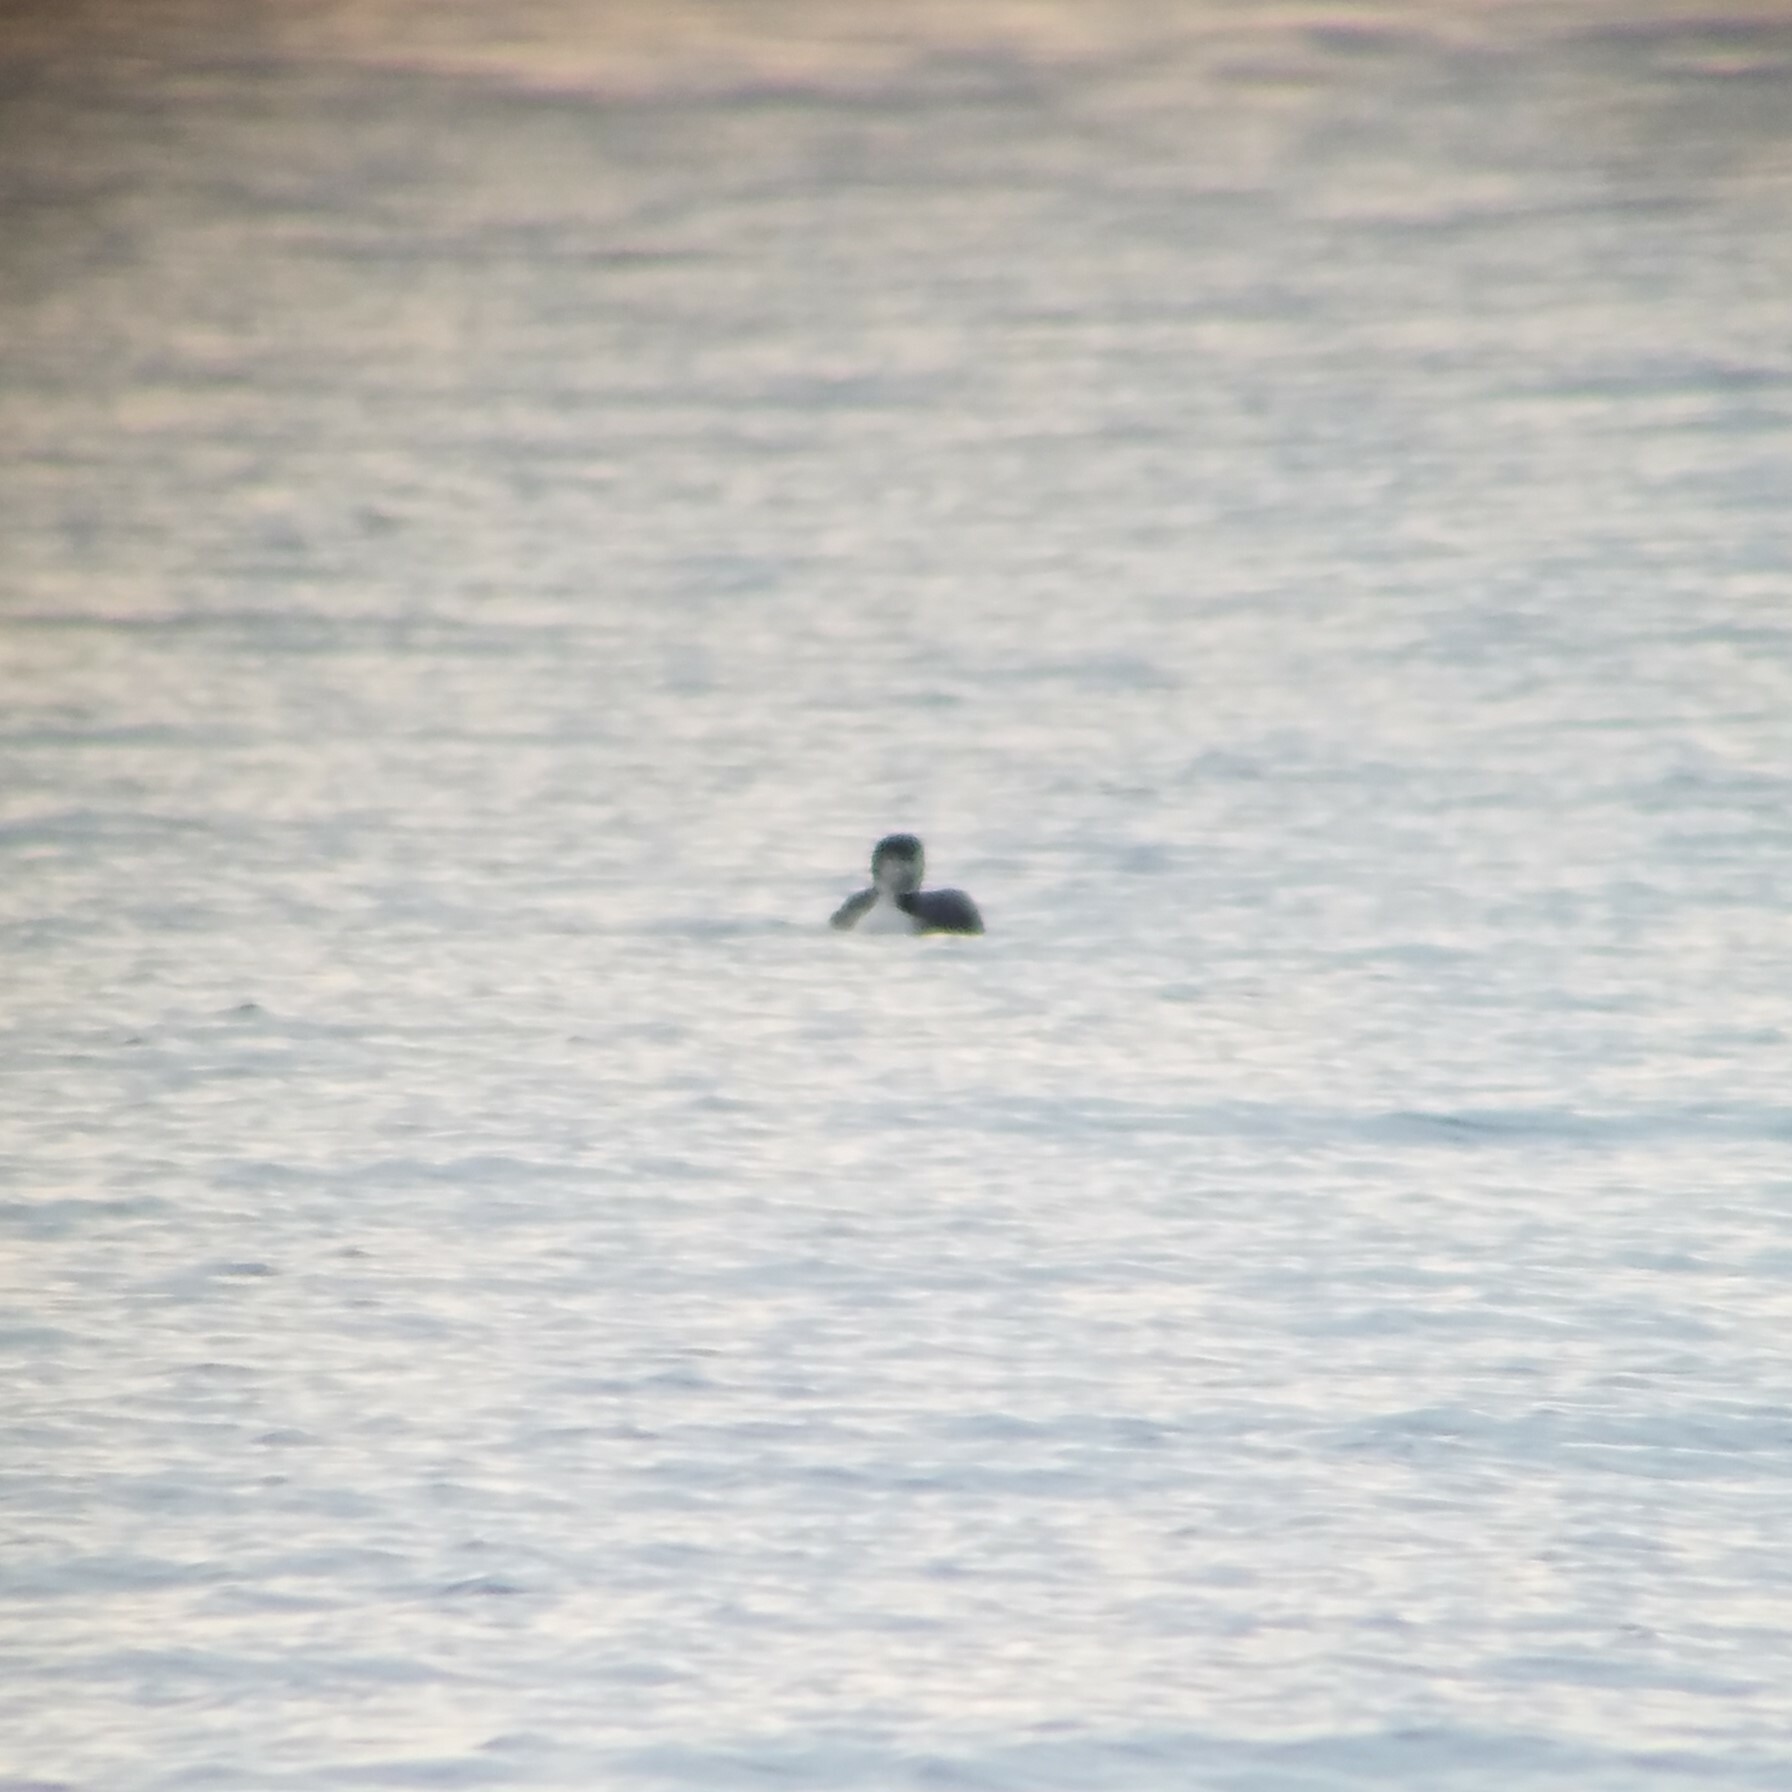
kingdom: Animalia
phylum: Chordata
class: Aves
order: Gaviiformes
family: Gaviidae
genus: Gavia
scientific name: Gavia immer
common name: Common loon
